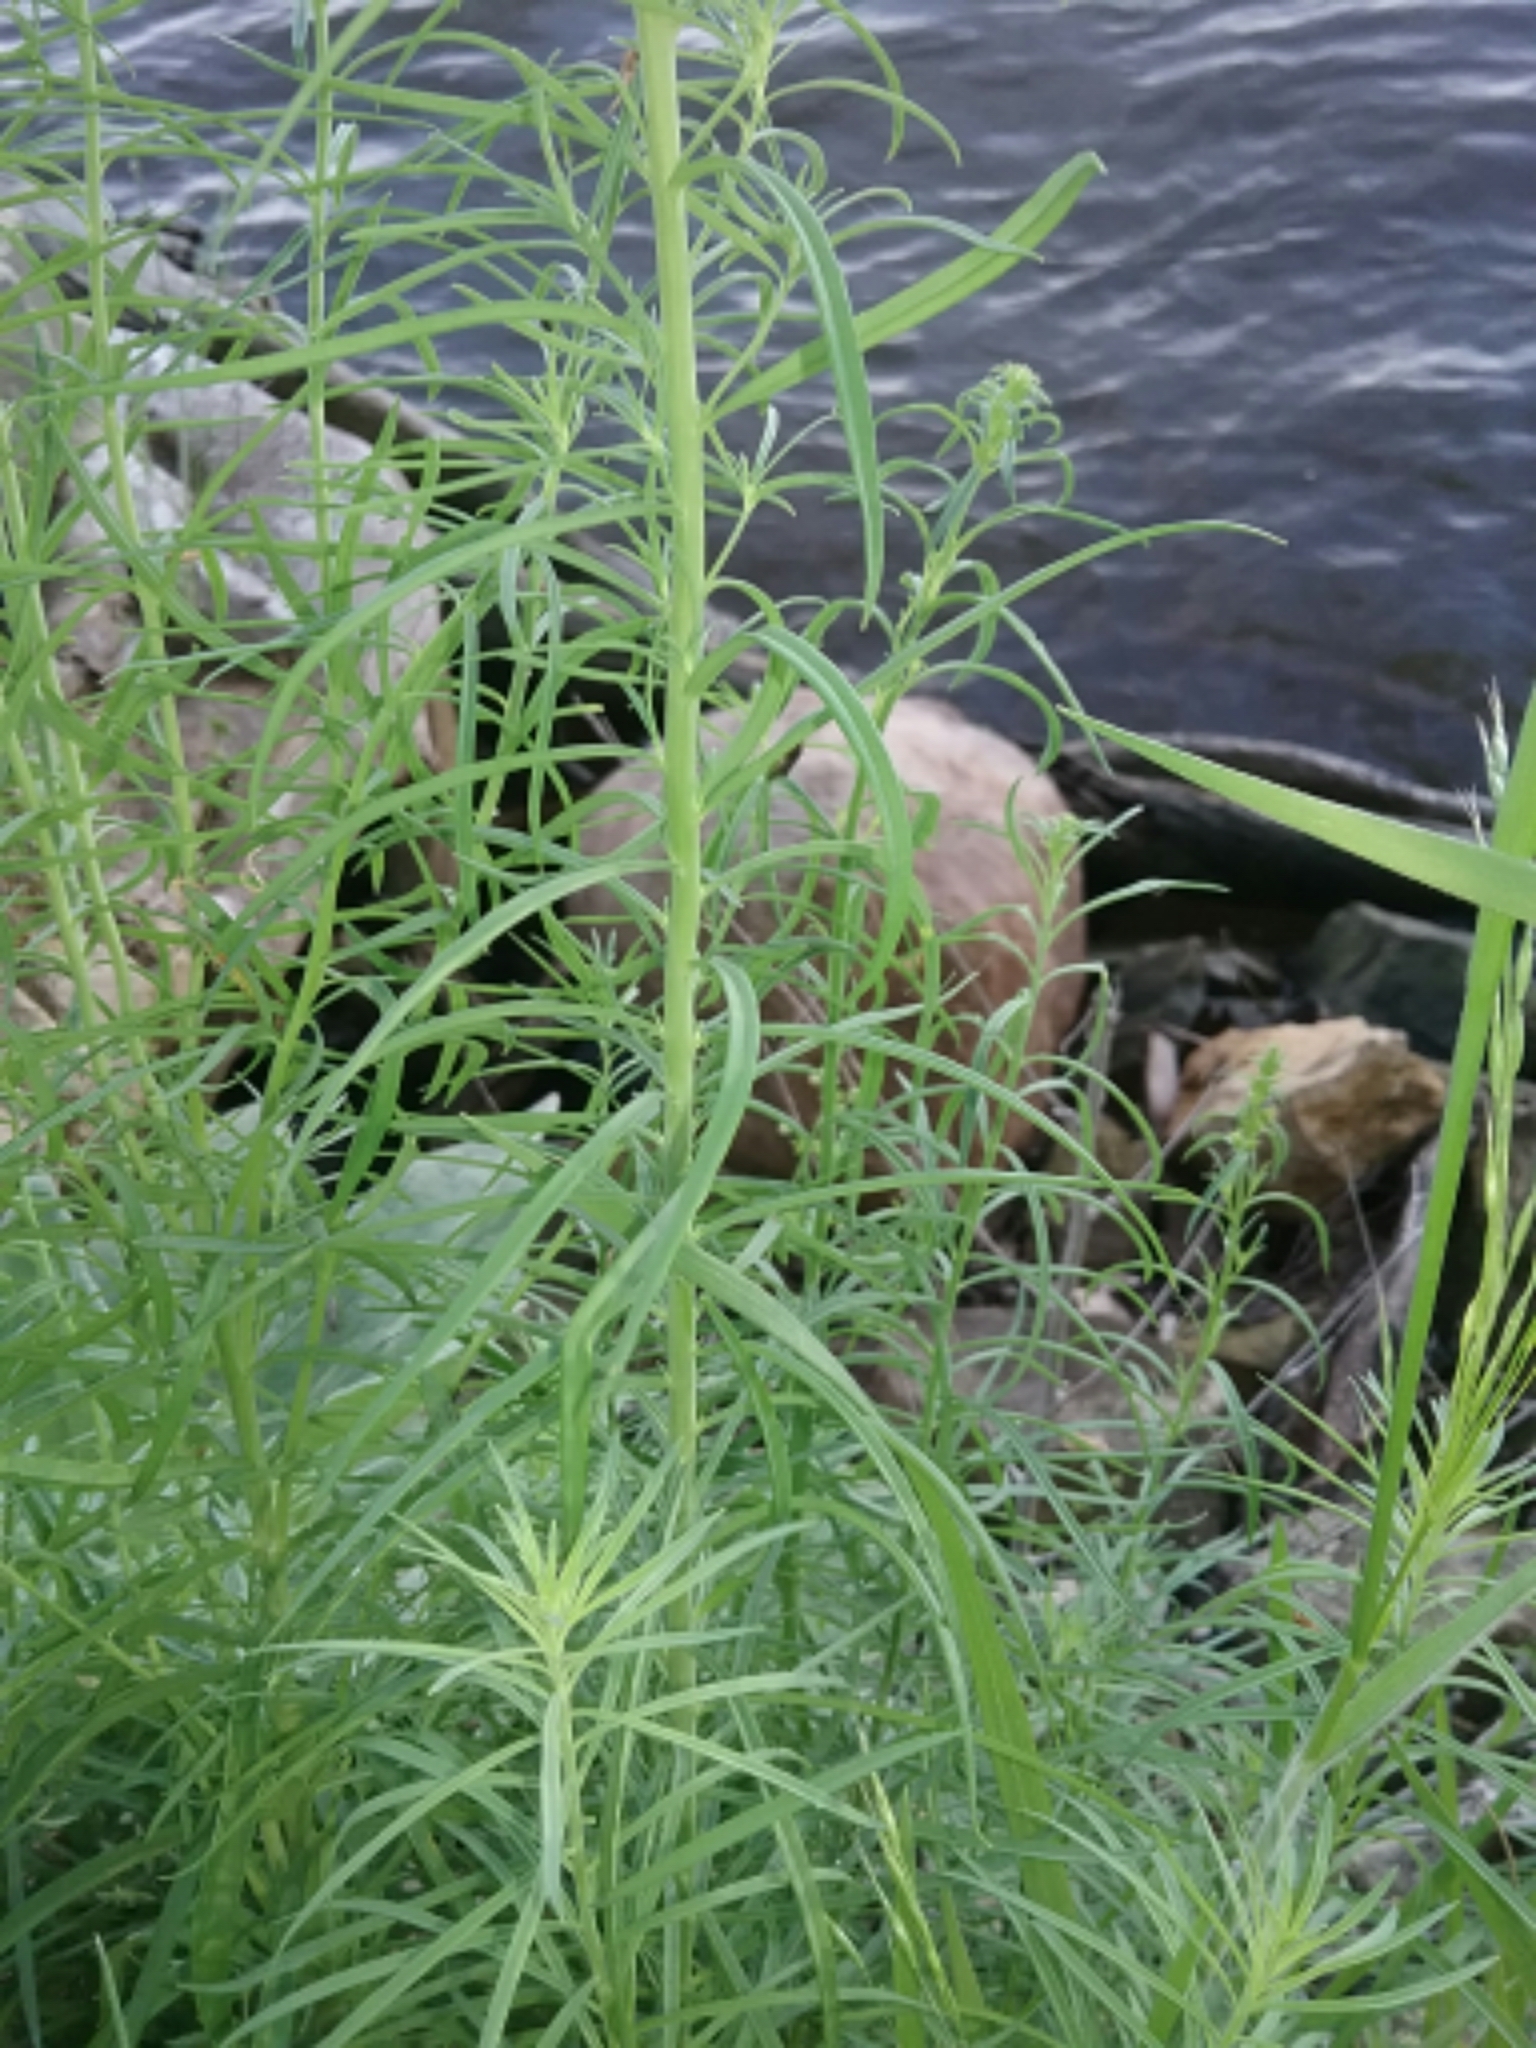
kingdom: Plantae
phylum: Tracheophyta
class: Magnoliopsida
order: Lamiales
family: Plantaginaceae
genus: Linaria
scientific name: Linaria vulgaris
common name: Butter and eggs
